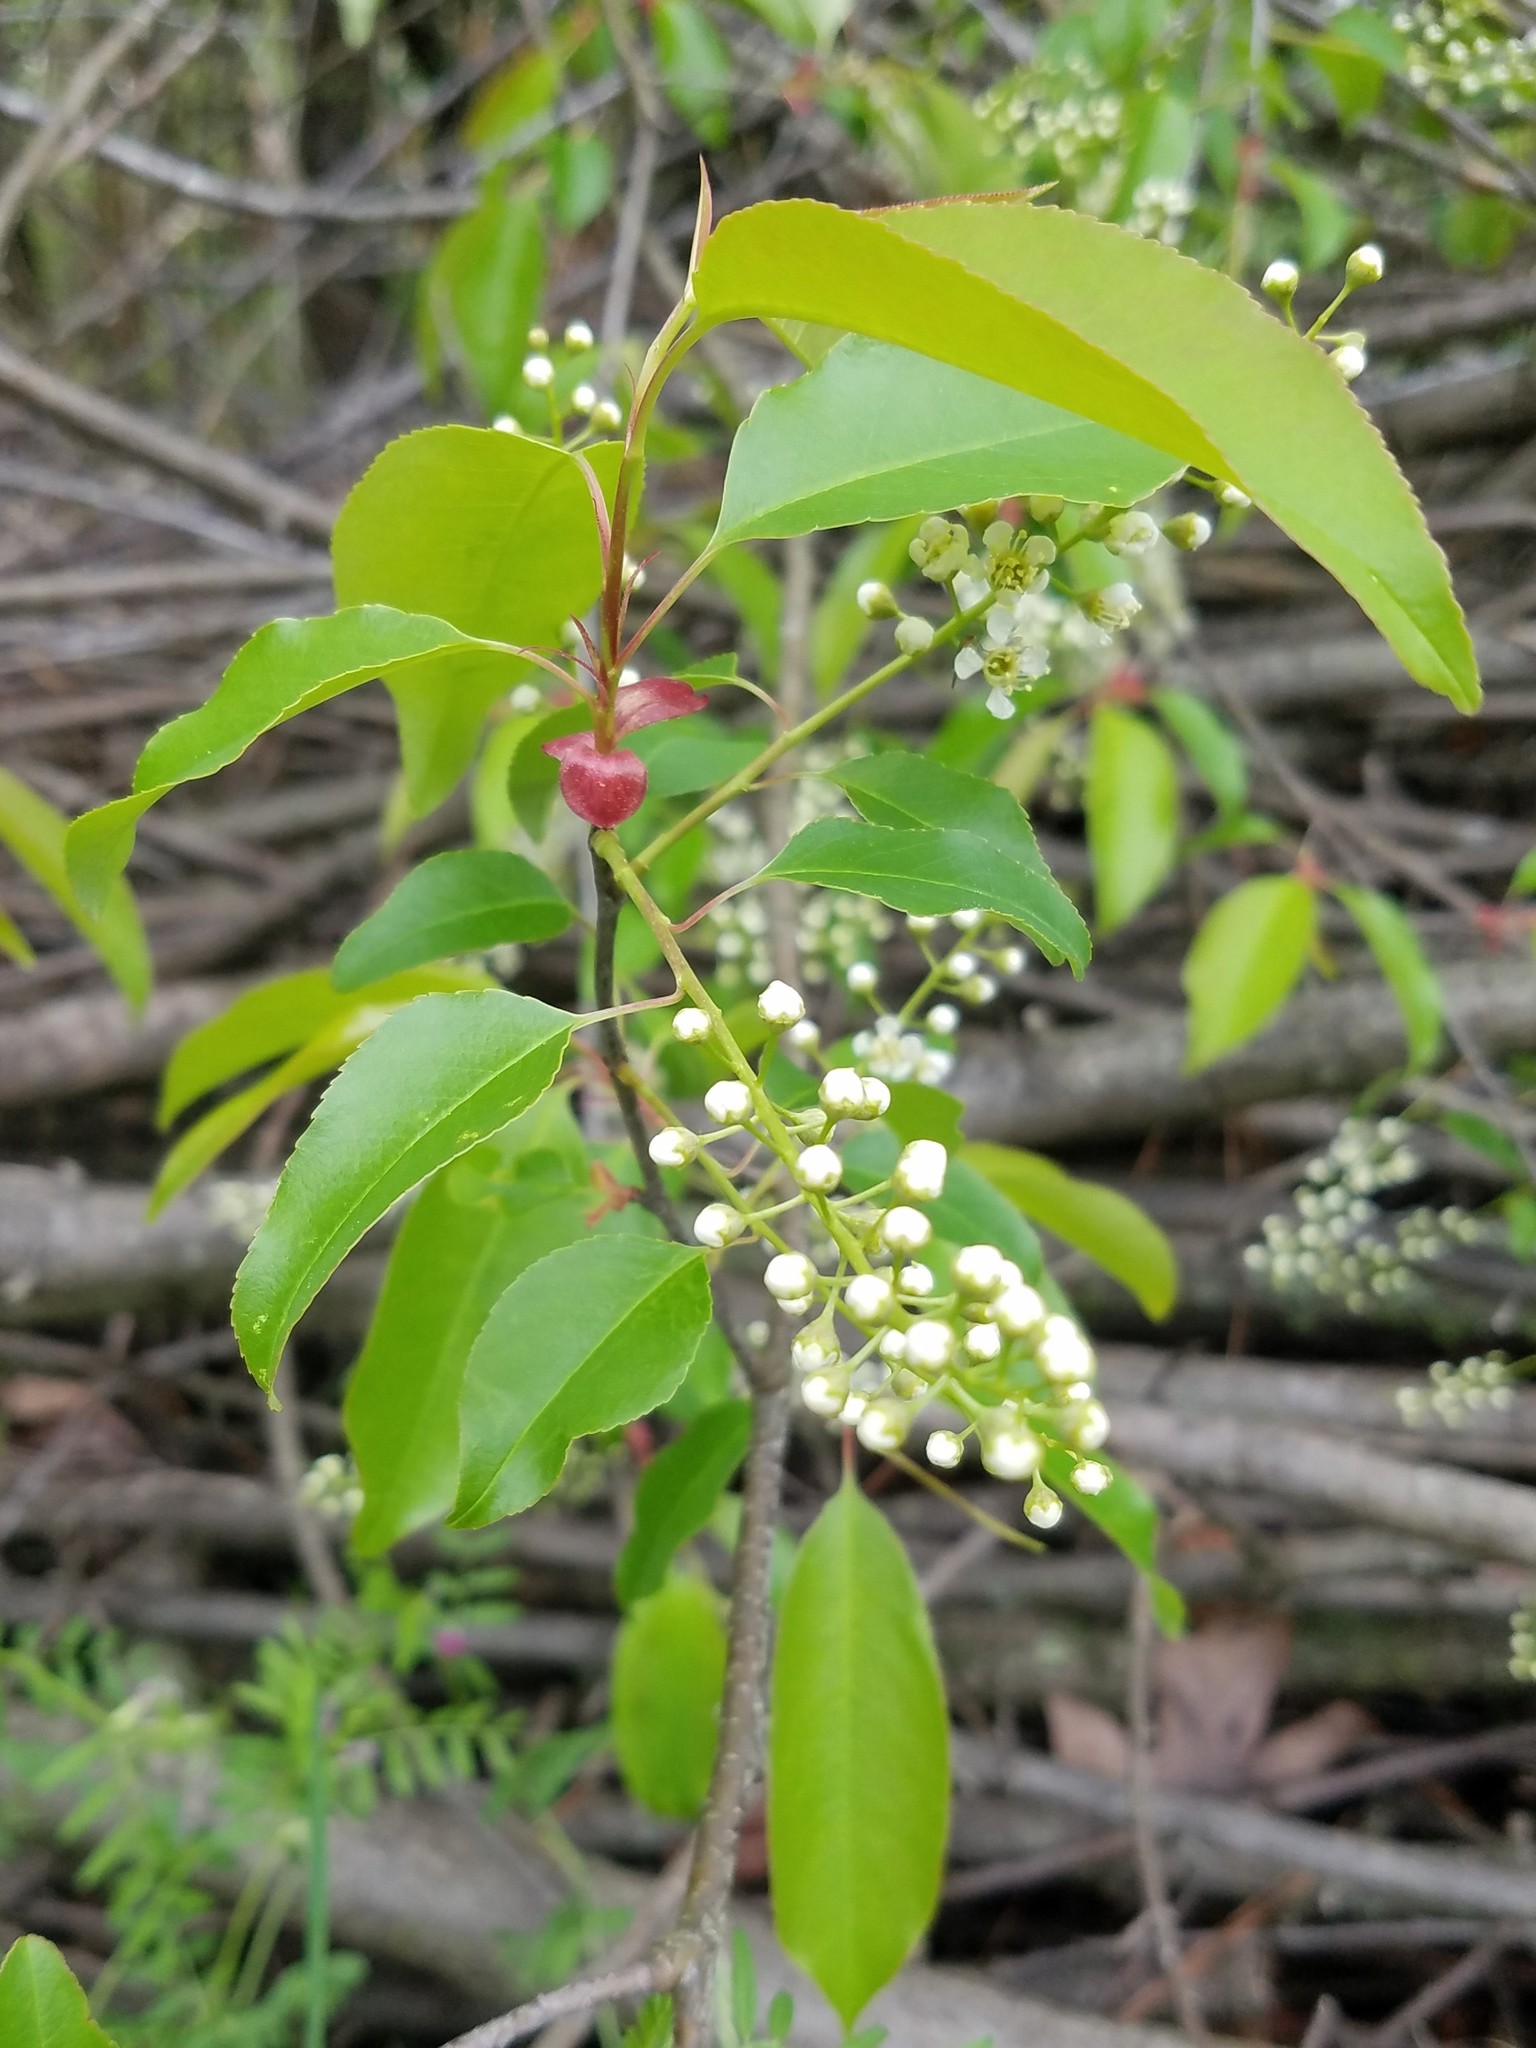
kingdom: Plantae
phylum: Tracheophyta
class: Magnoliopsida
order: Rosales
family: Rosaceae
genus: Prunus
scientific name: Prunus serotina
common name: Black cherry
